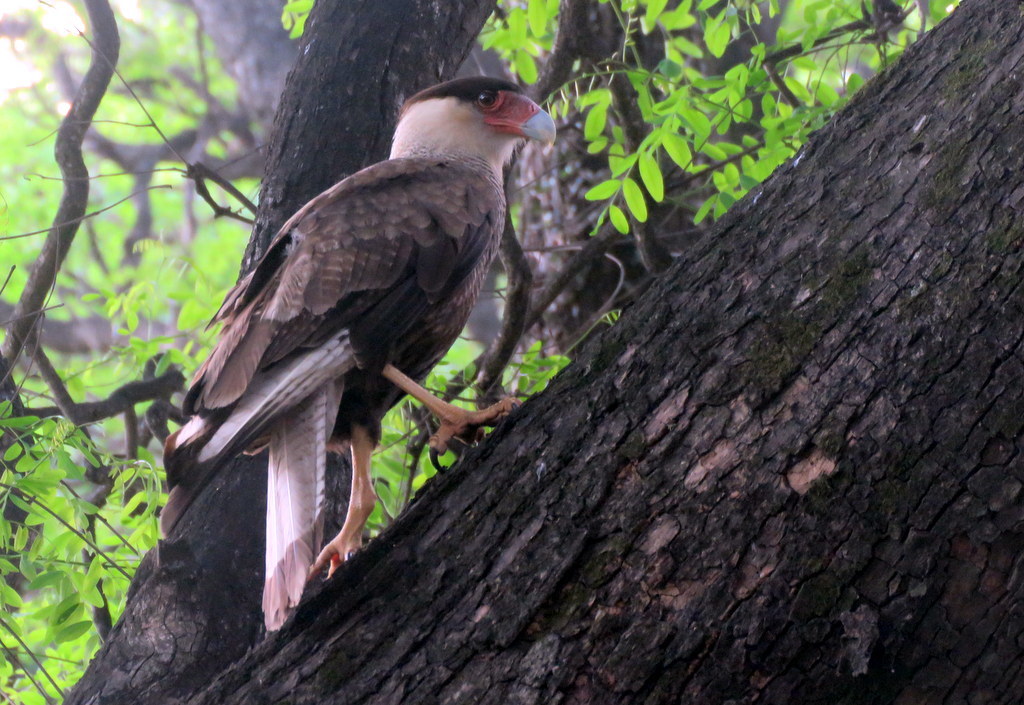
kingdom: Animalia
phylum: Chordata
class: Aves
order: Falconiformes
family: Falconidae
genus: Caracara
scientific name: Caracara plancus
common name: Southern caracara
